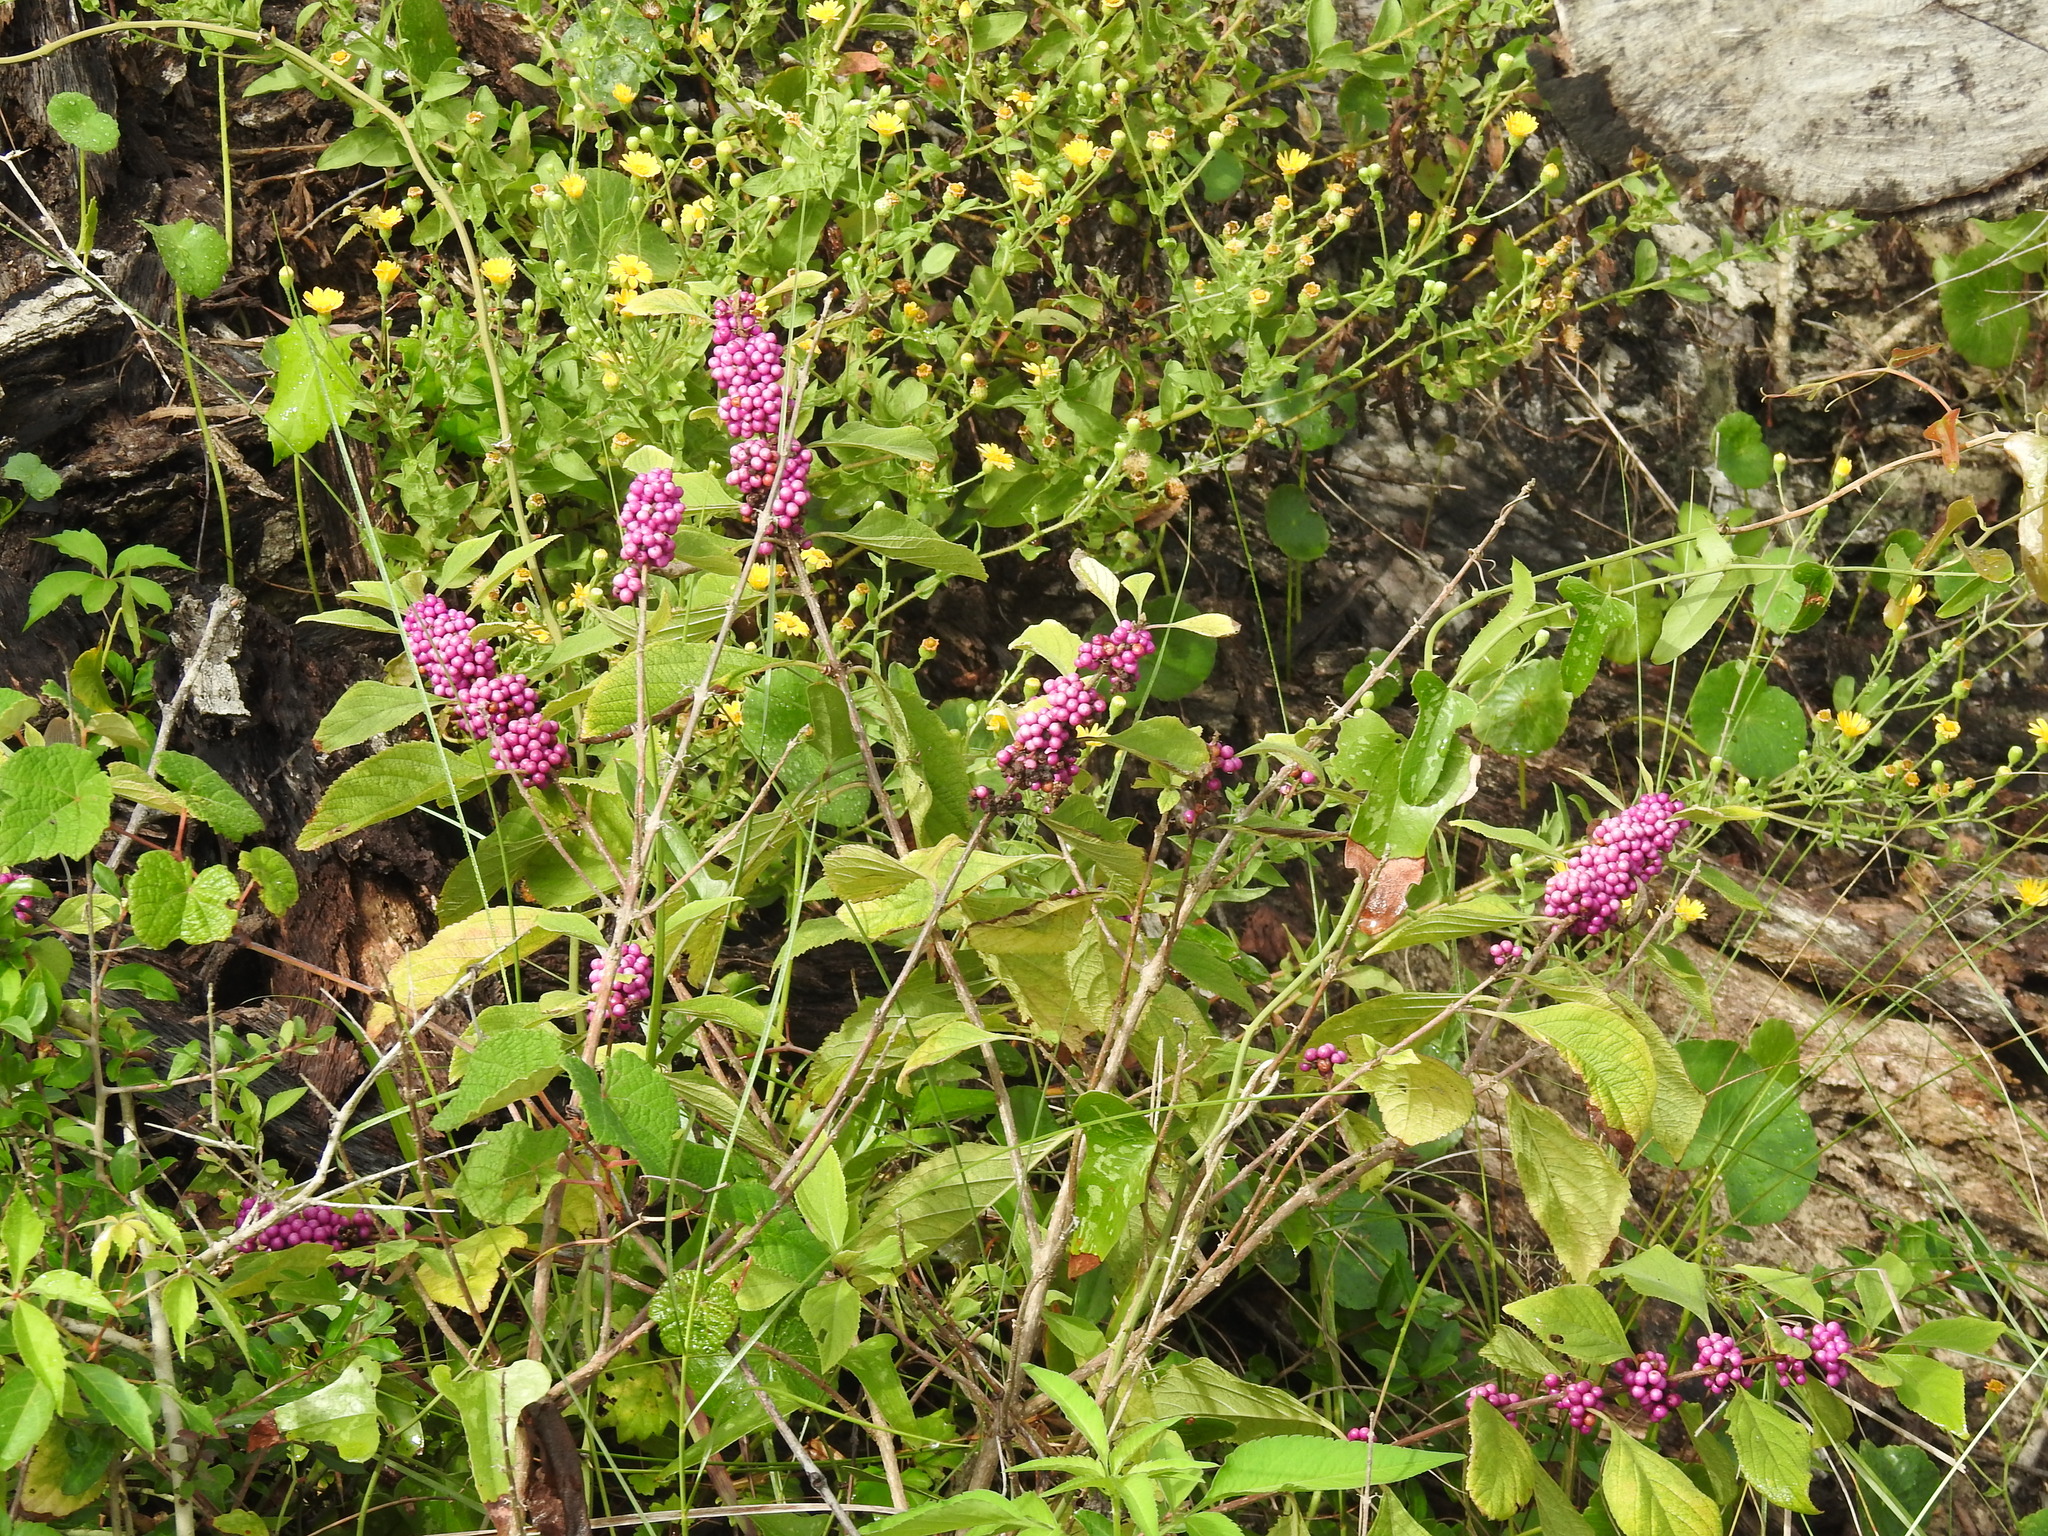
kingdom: Plantae
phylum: Tracheophyta
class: Magnoliopsida
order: Lamiales
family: Lamiaceae
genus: Callicarpa
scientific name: Callicarpa americana
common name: American beautyberry
